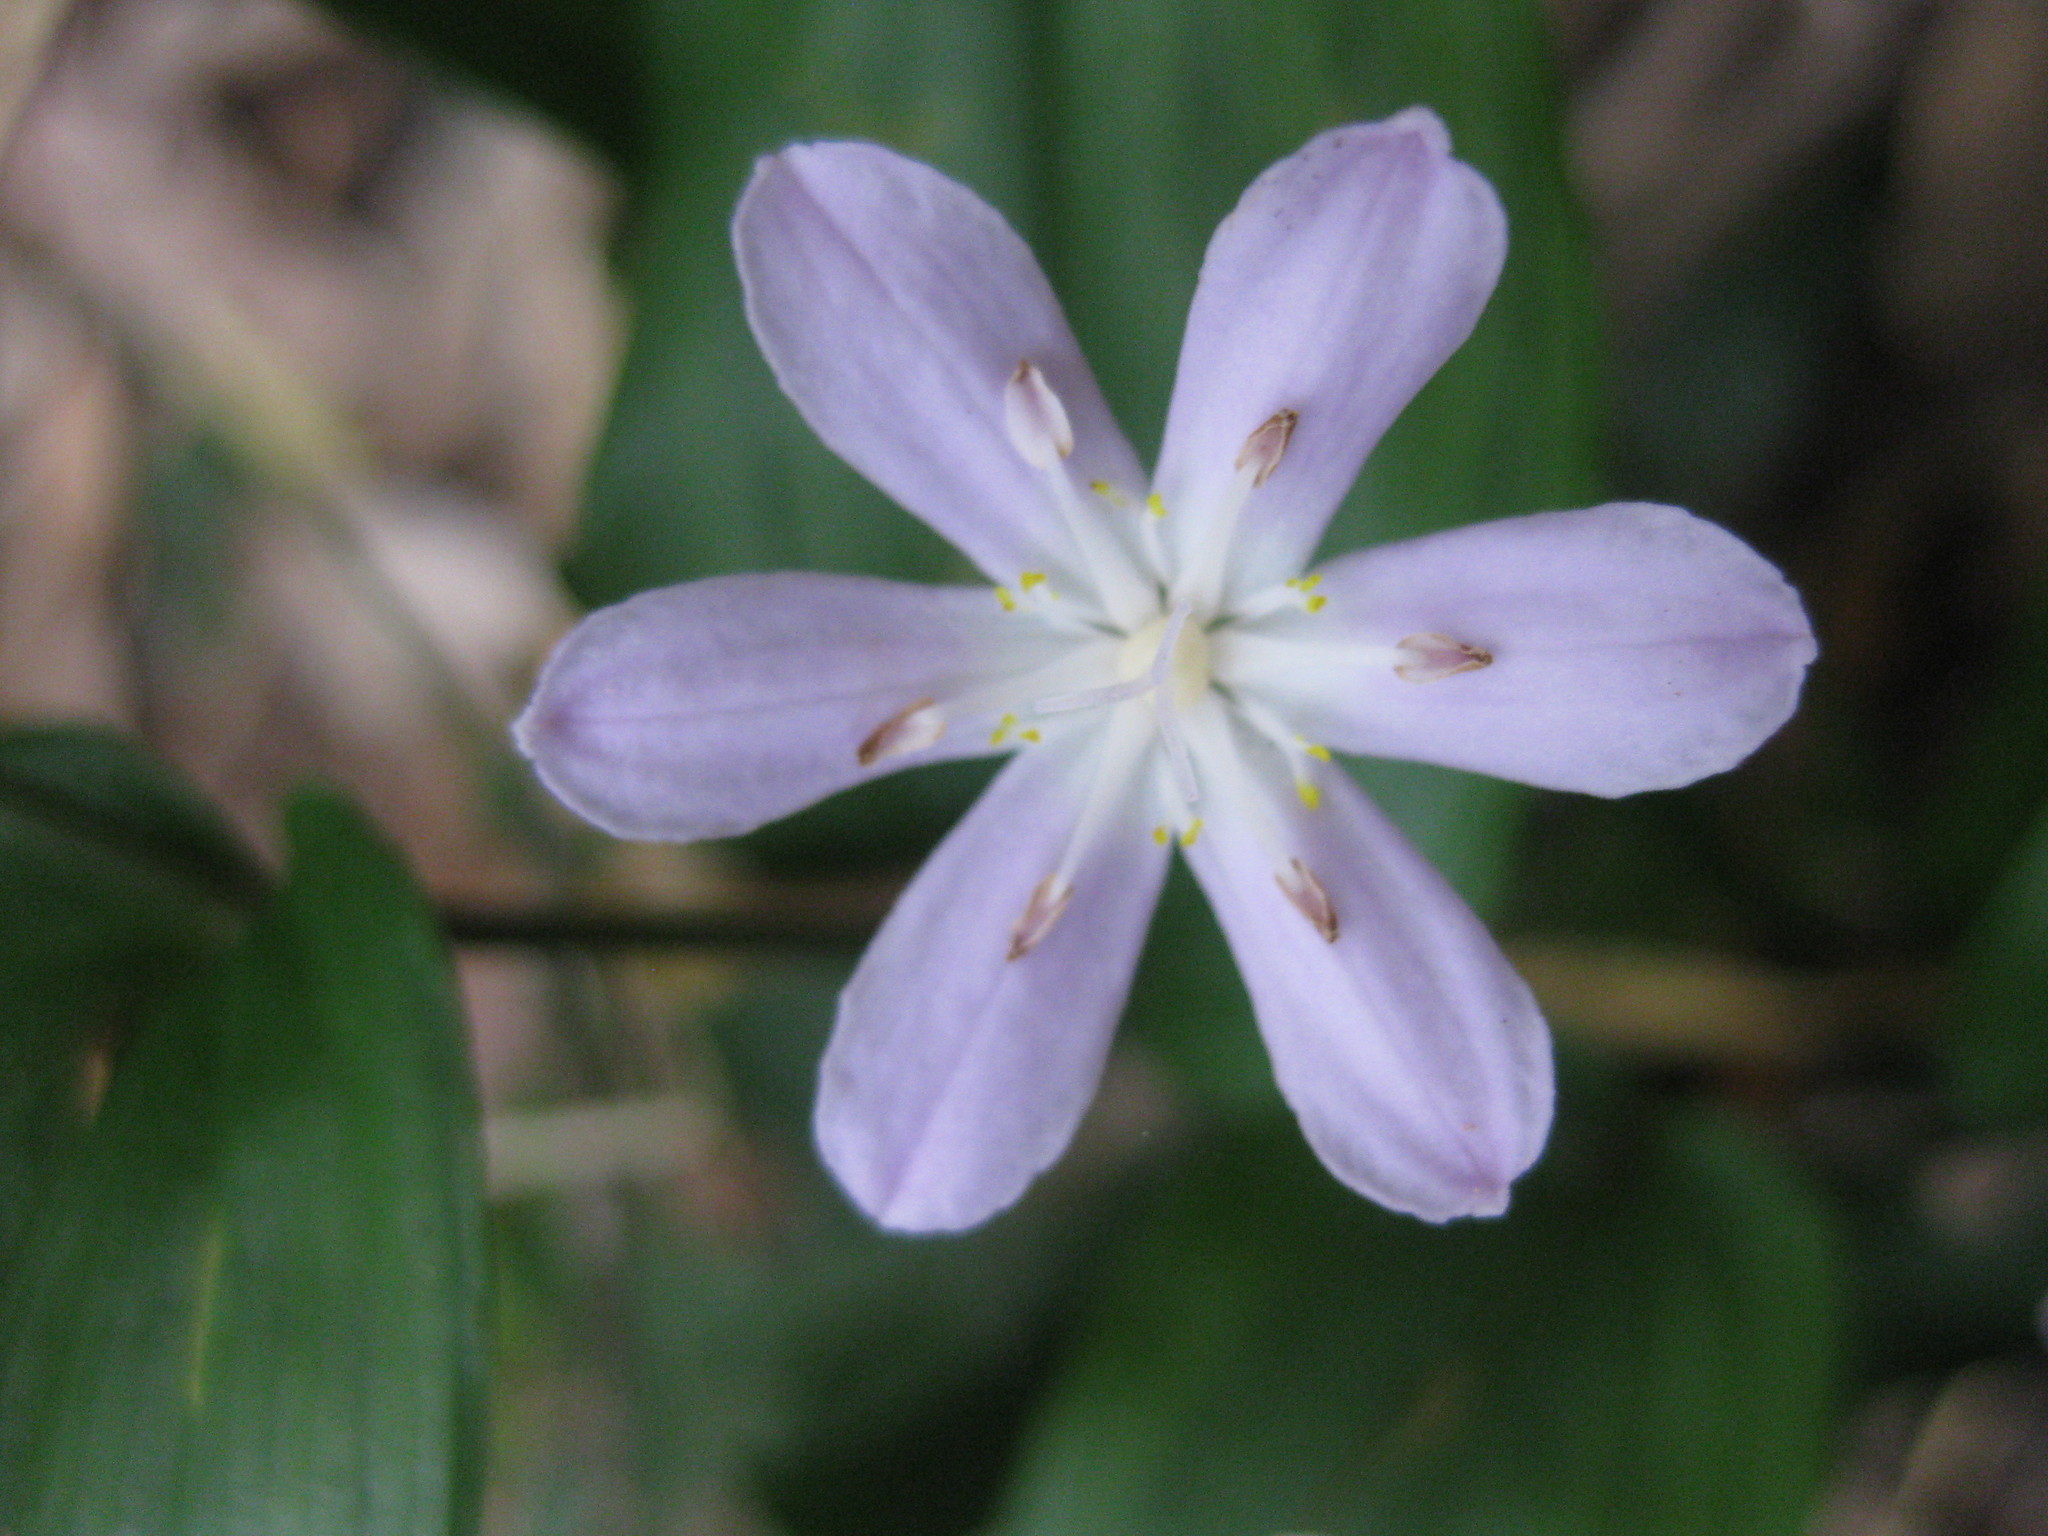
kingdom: Plantae
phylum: Tracheophyta
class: Liliopsida
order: Liliales
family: Colchicaceae
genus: Tripladenia
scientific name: Tripladenia cunninghamii
